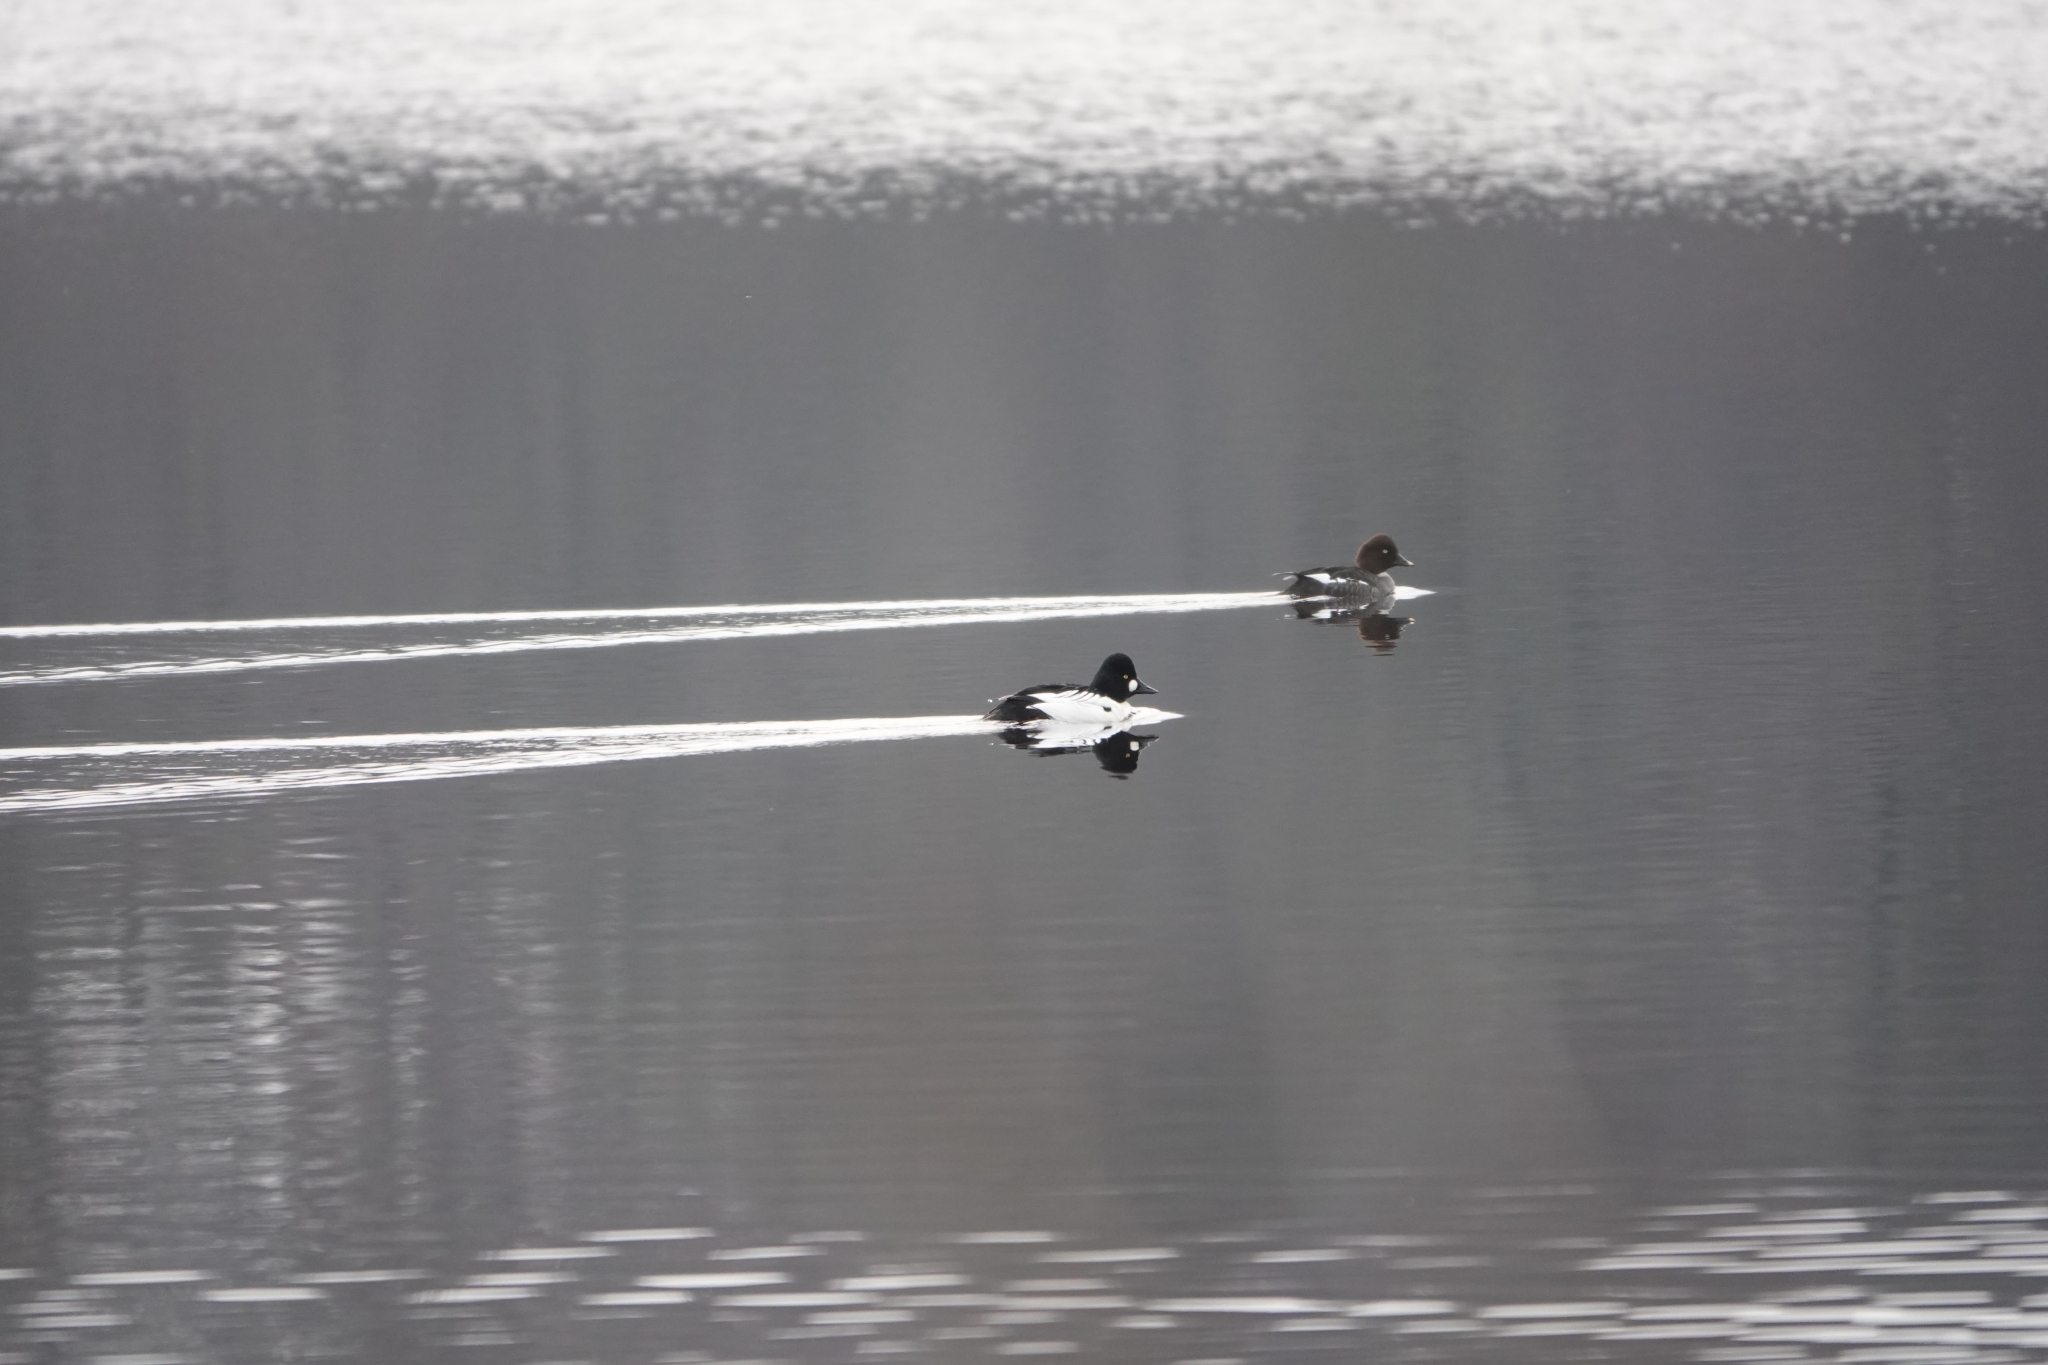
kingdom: Animalia
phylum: Chordata
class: Aves
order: Anseriformes
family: Anatidae
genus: Bucephala
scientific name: Bucephala clangula
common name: Common goldeneye
